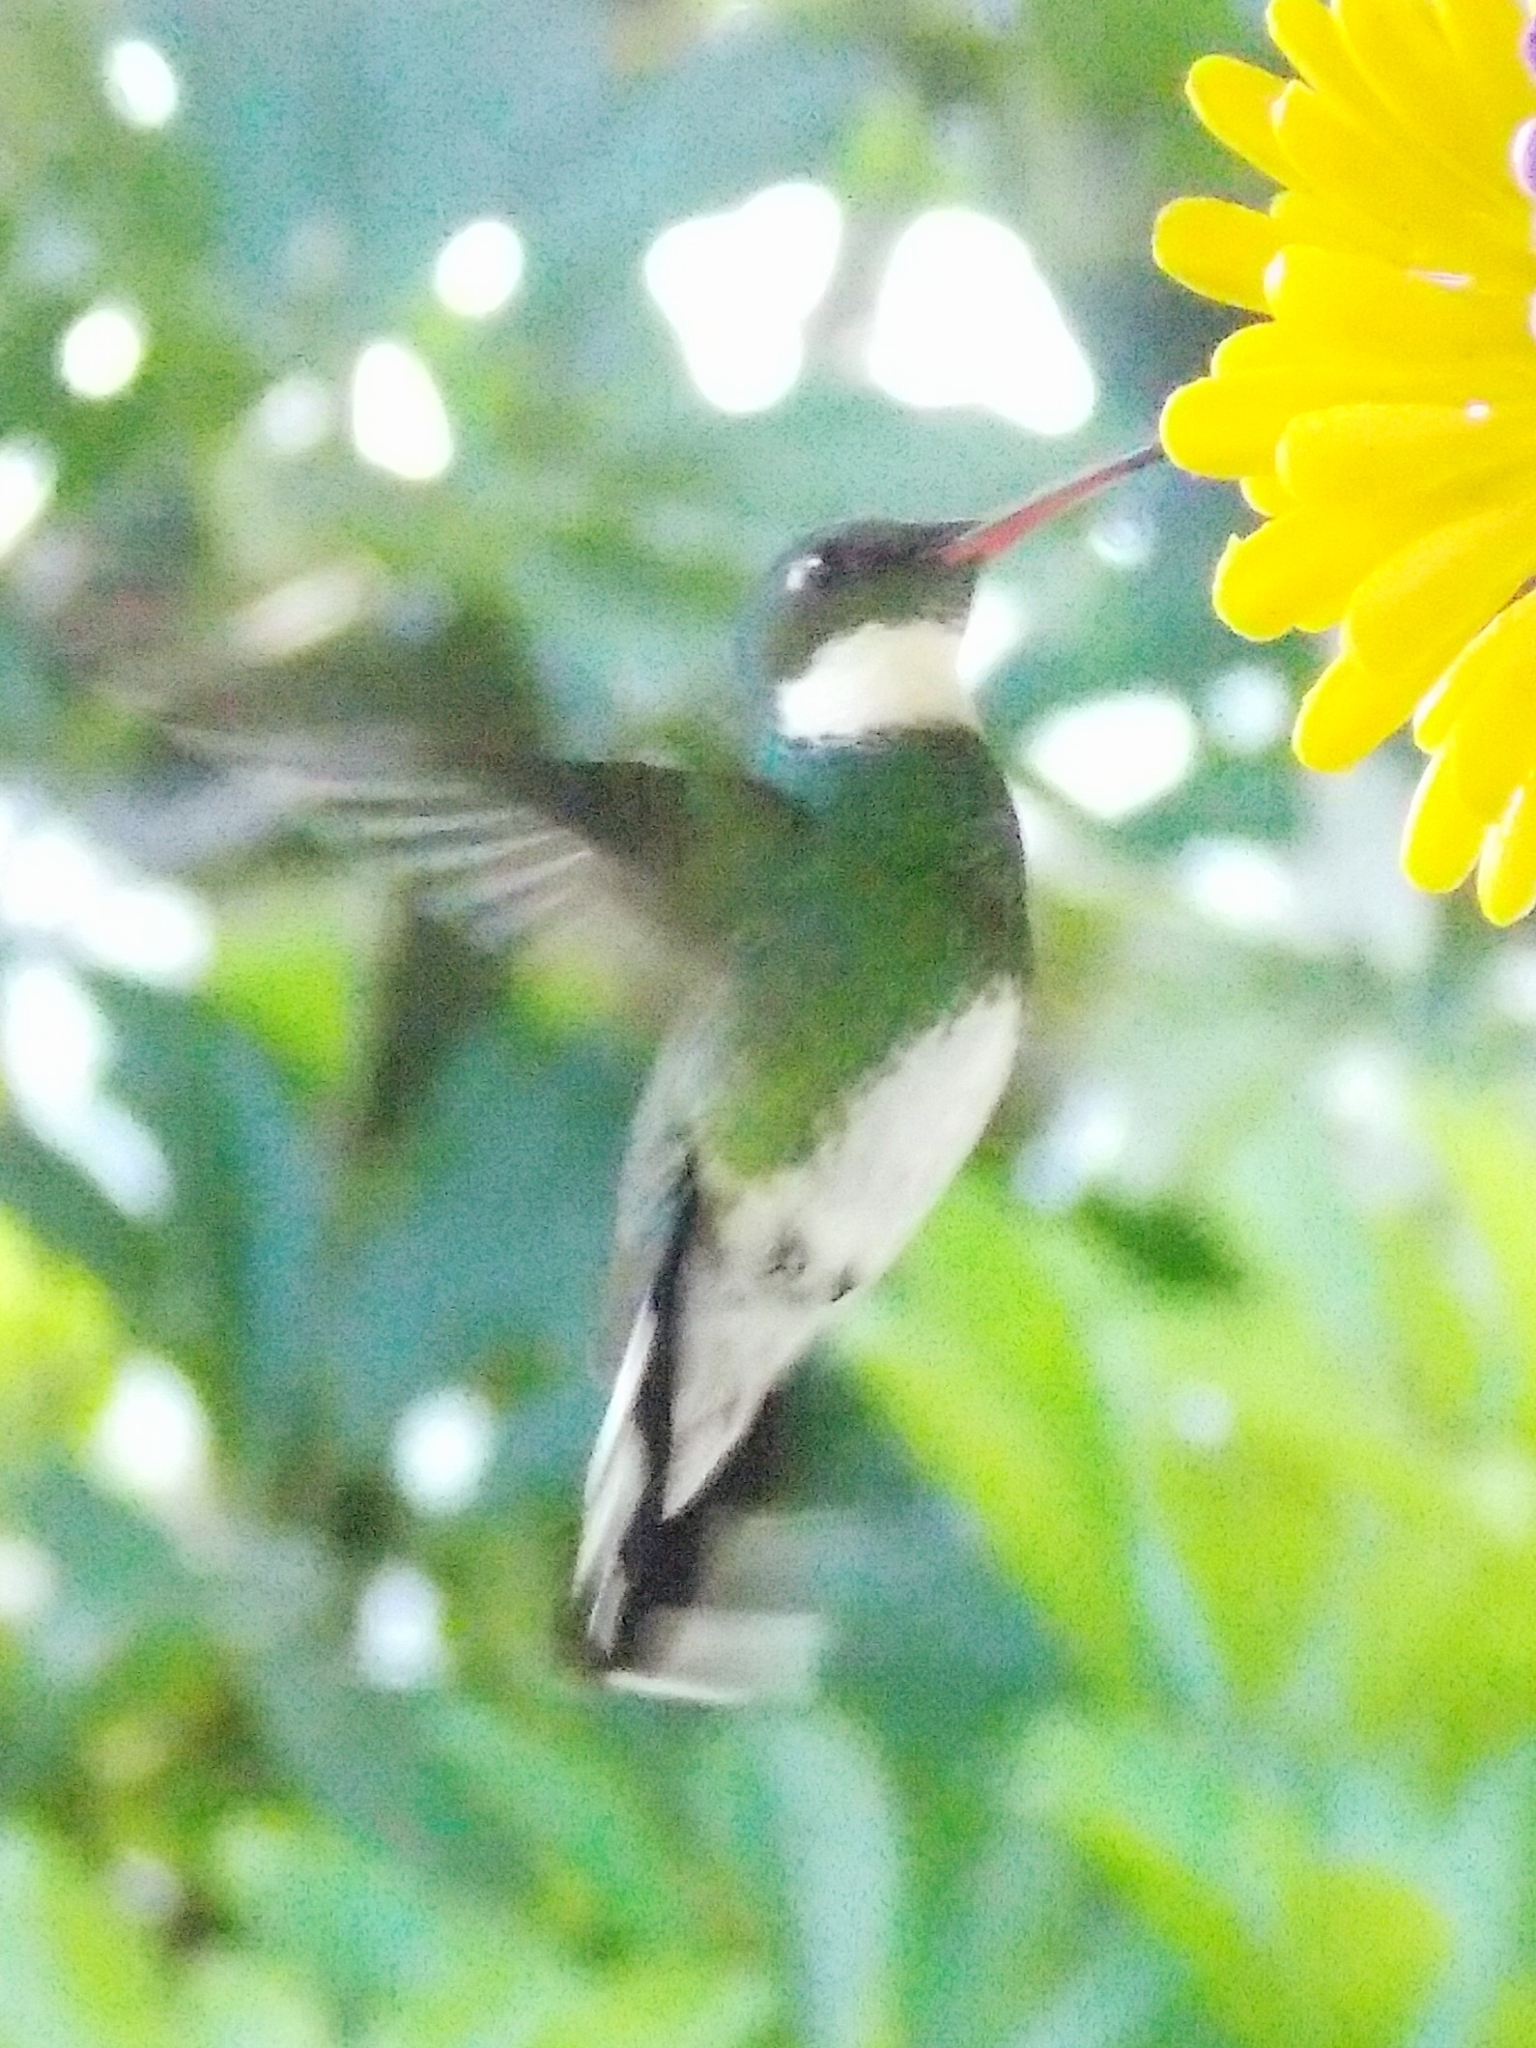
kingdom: Animalia
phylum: Chordata
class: Aves
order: Apodiformes
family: Trochilidae
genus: Leucochloris
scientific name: Leucochloris albicollis
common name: White-throated hummingbird
